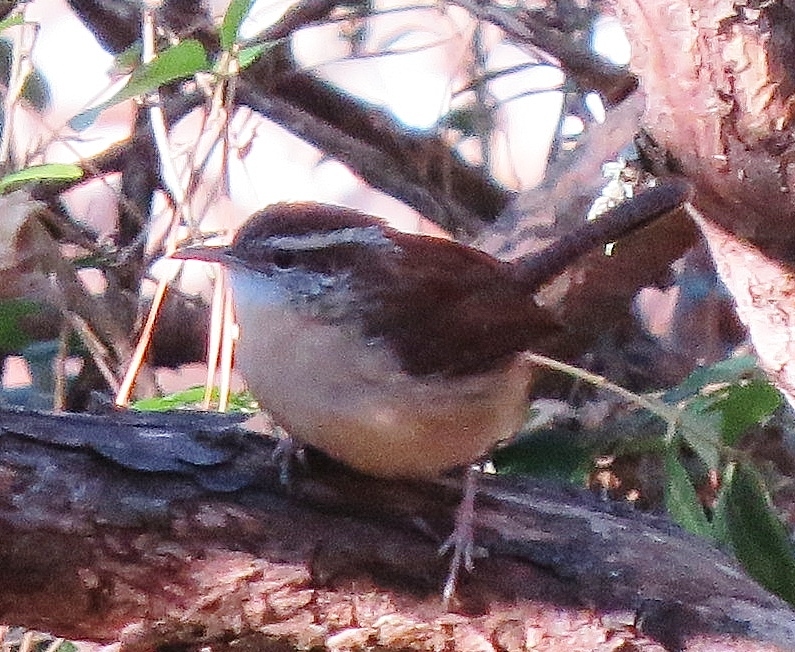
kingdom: Animalia
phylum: Chordata
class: Aves
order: Passeriformes
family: Troglodytidae
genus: Thryothorus
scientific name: Thryothorus ludovicianus
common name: Carolina wren
